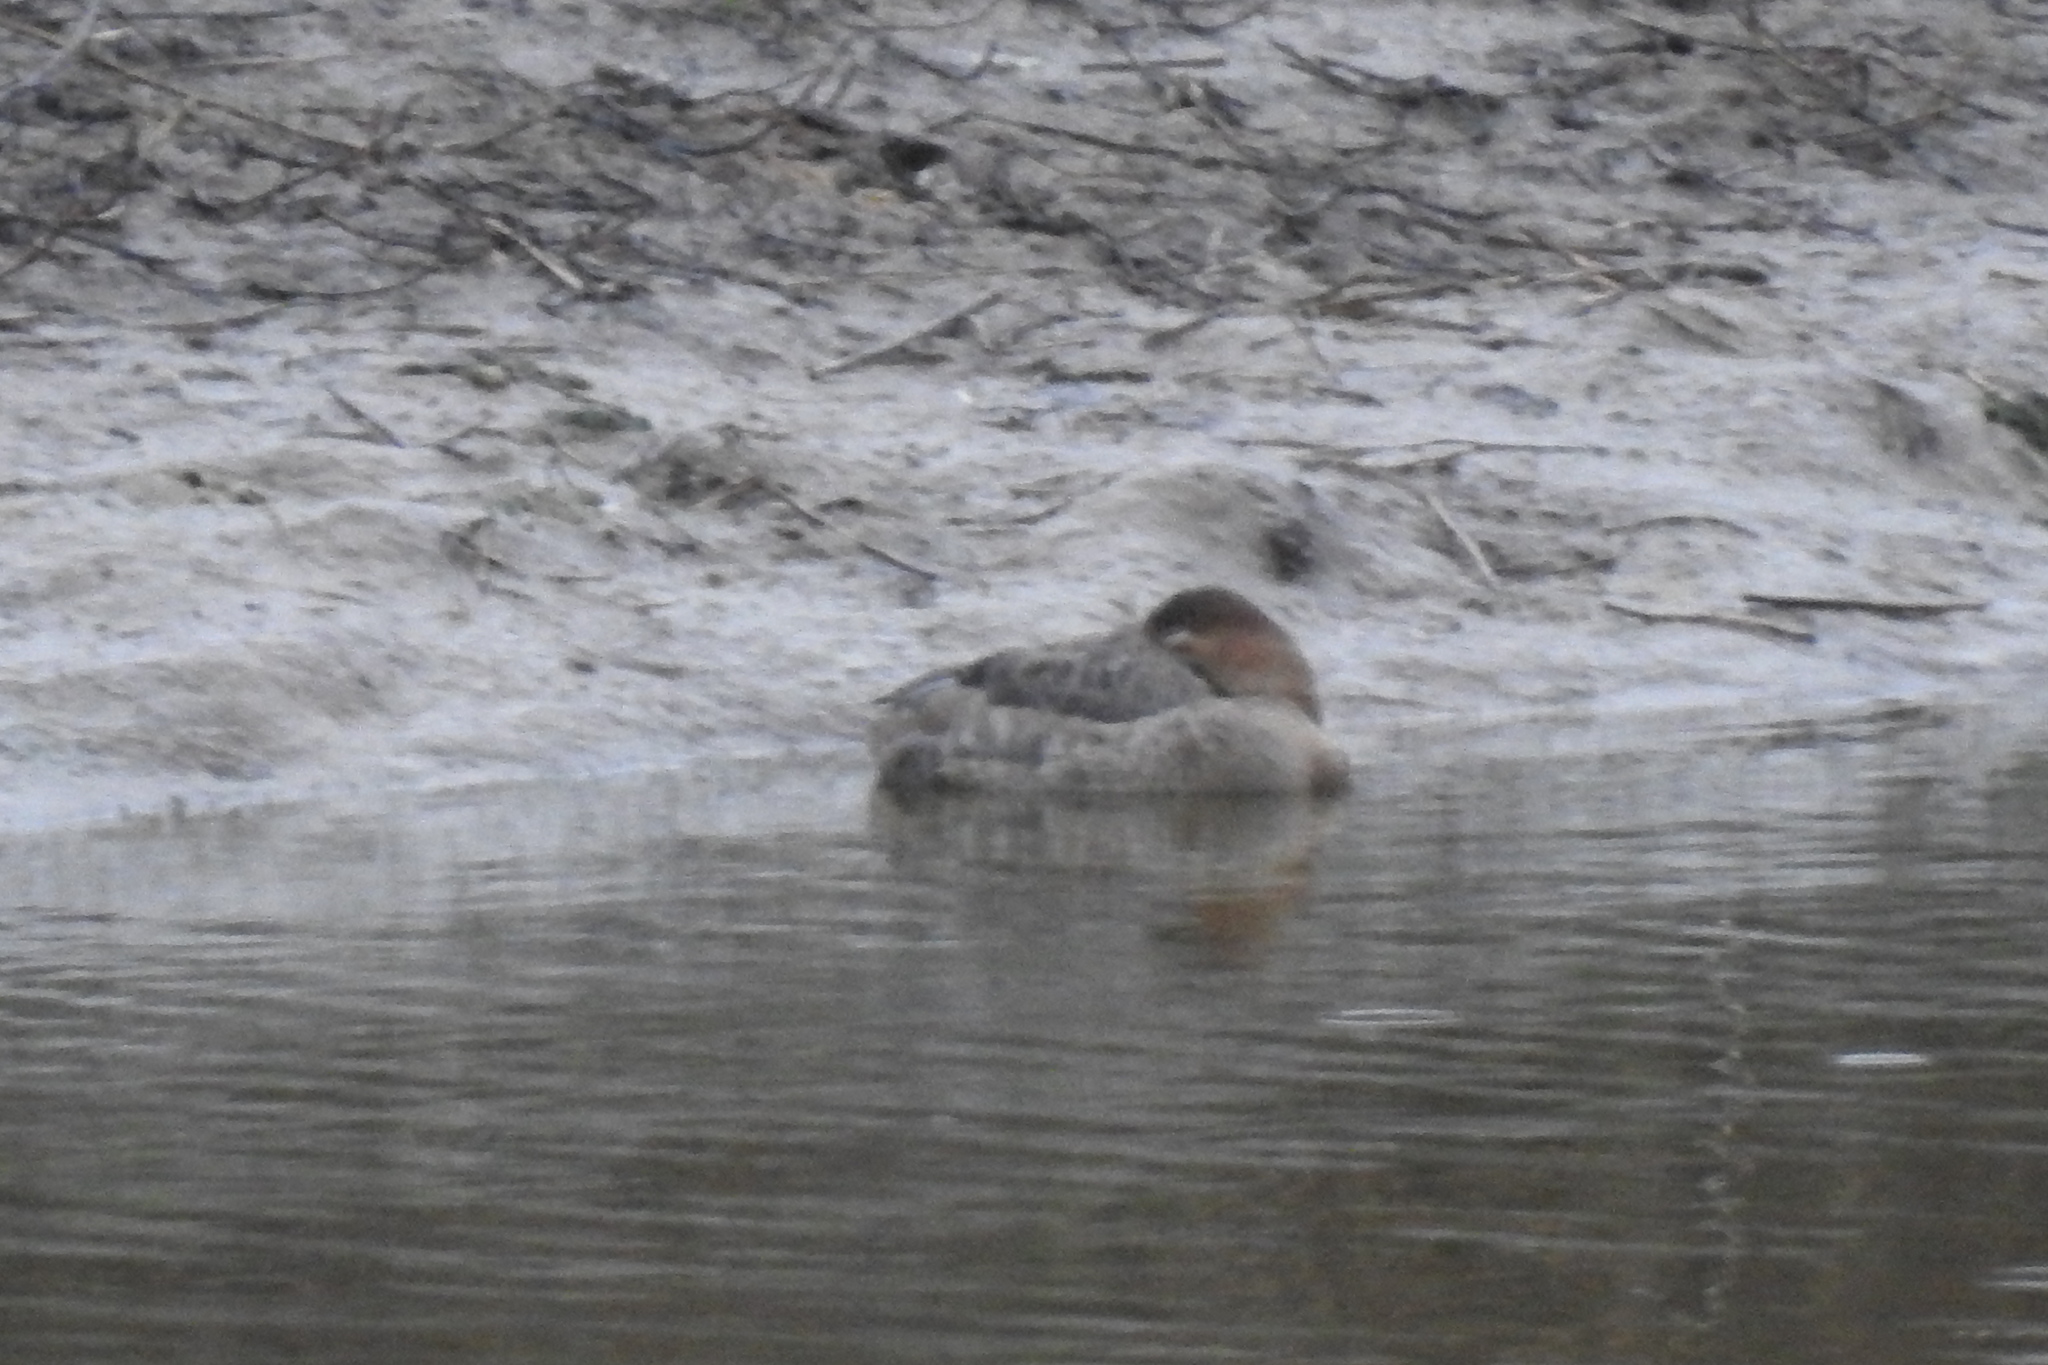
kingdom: Animalia
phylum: Chordata
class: Aves
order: Anseriformes
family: Anatidae
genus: Aythya
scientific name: Aythya valisineria
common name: Canvasback
